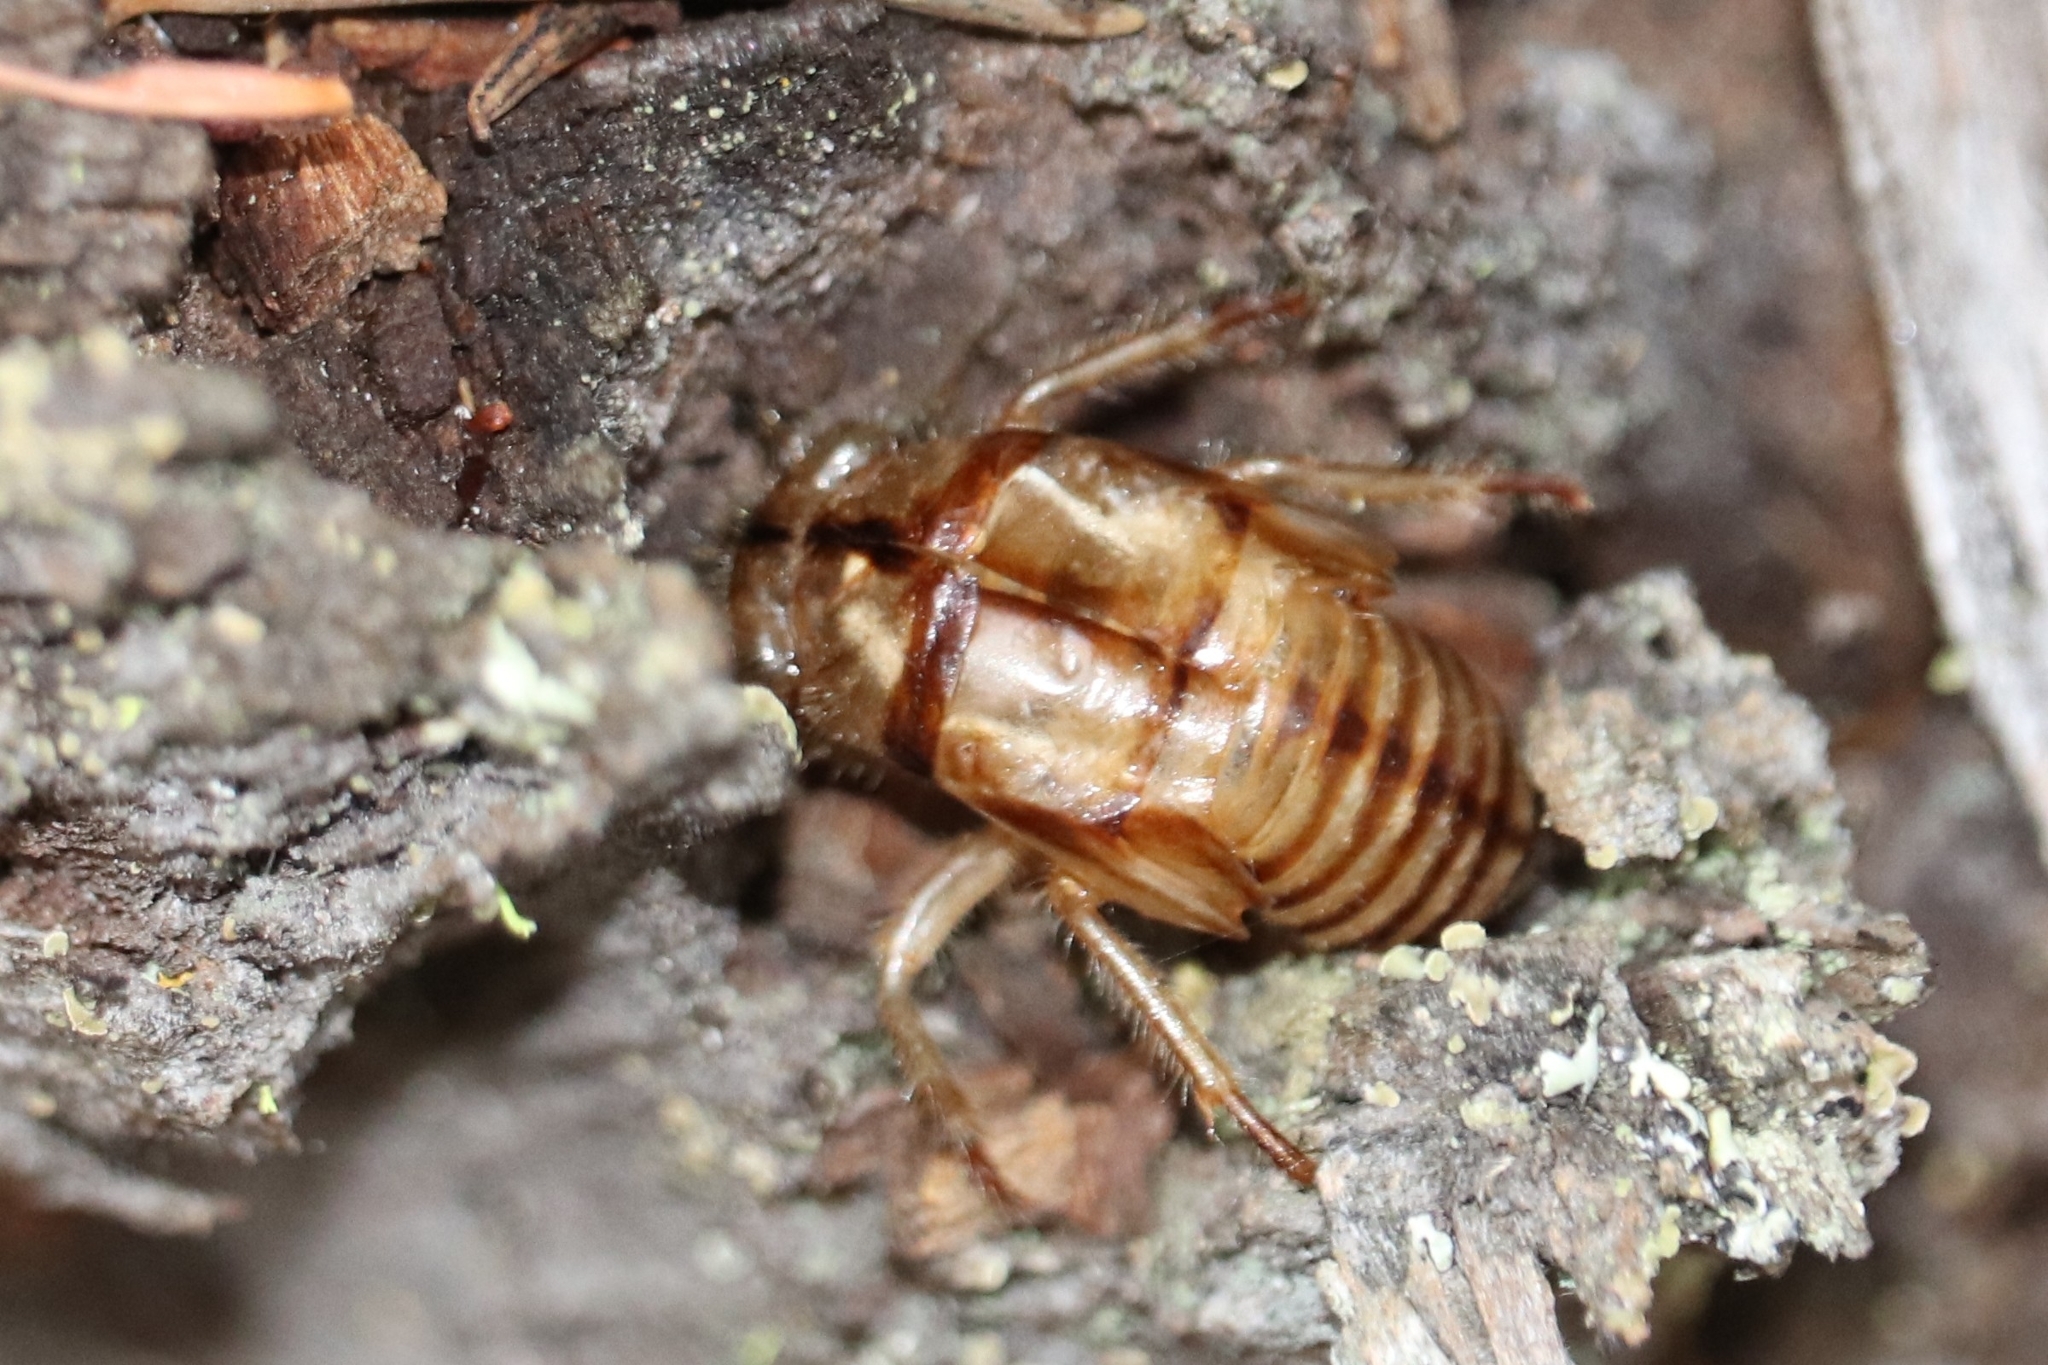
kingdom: Animalia
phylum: Arthropoda
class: Insecta
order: Hemiptera
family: Cicadidae
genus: Platypedia
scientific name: Platypedia areolata
